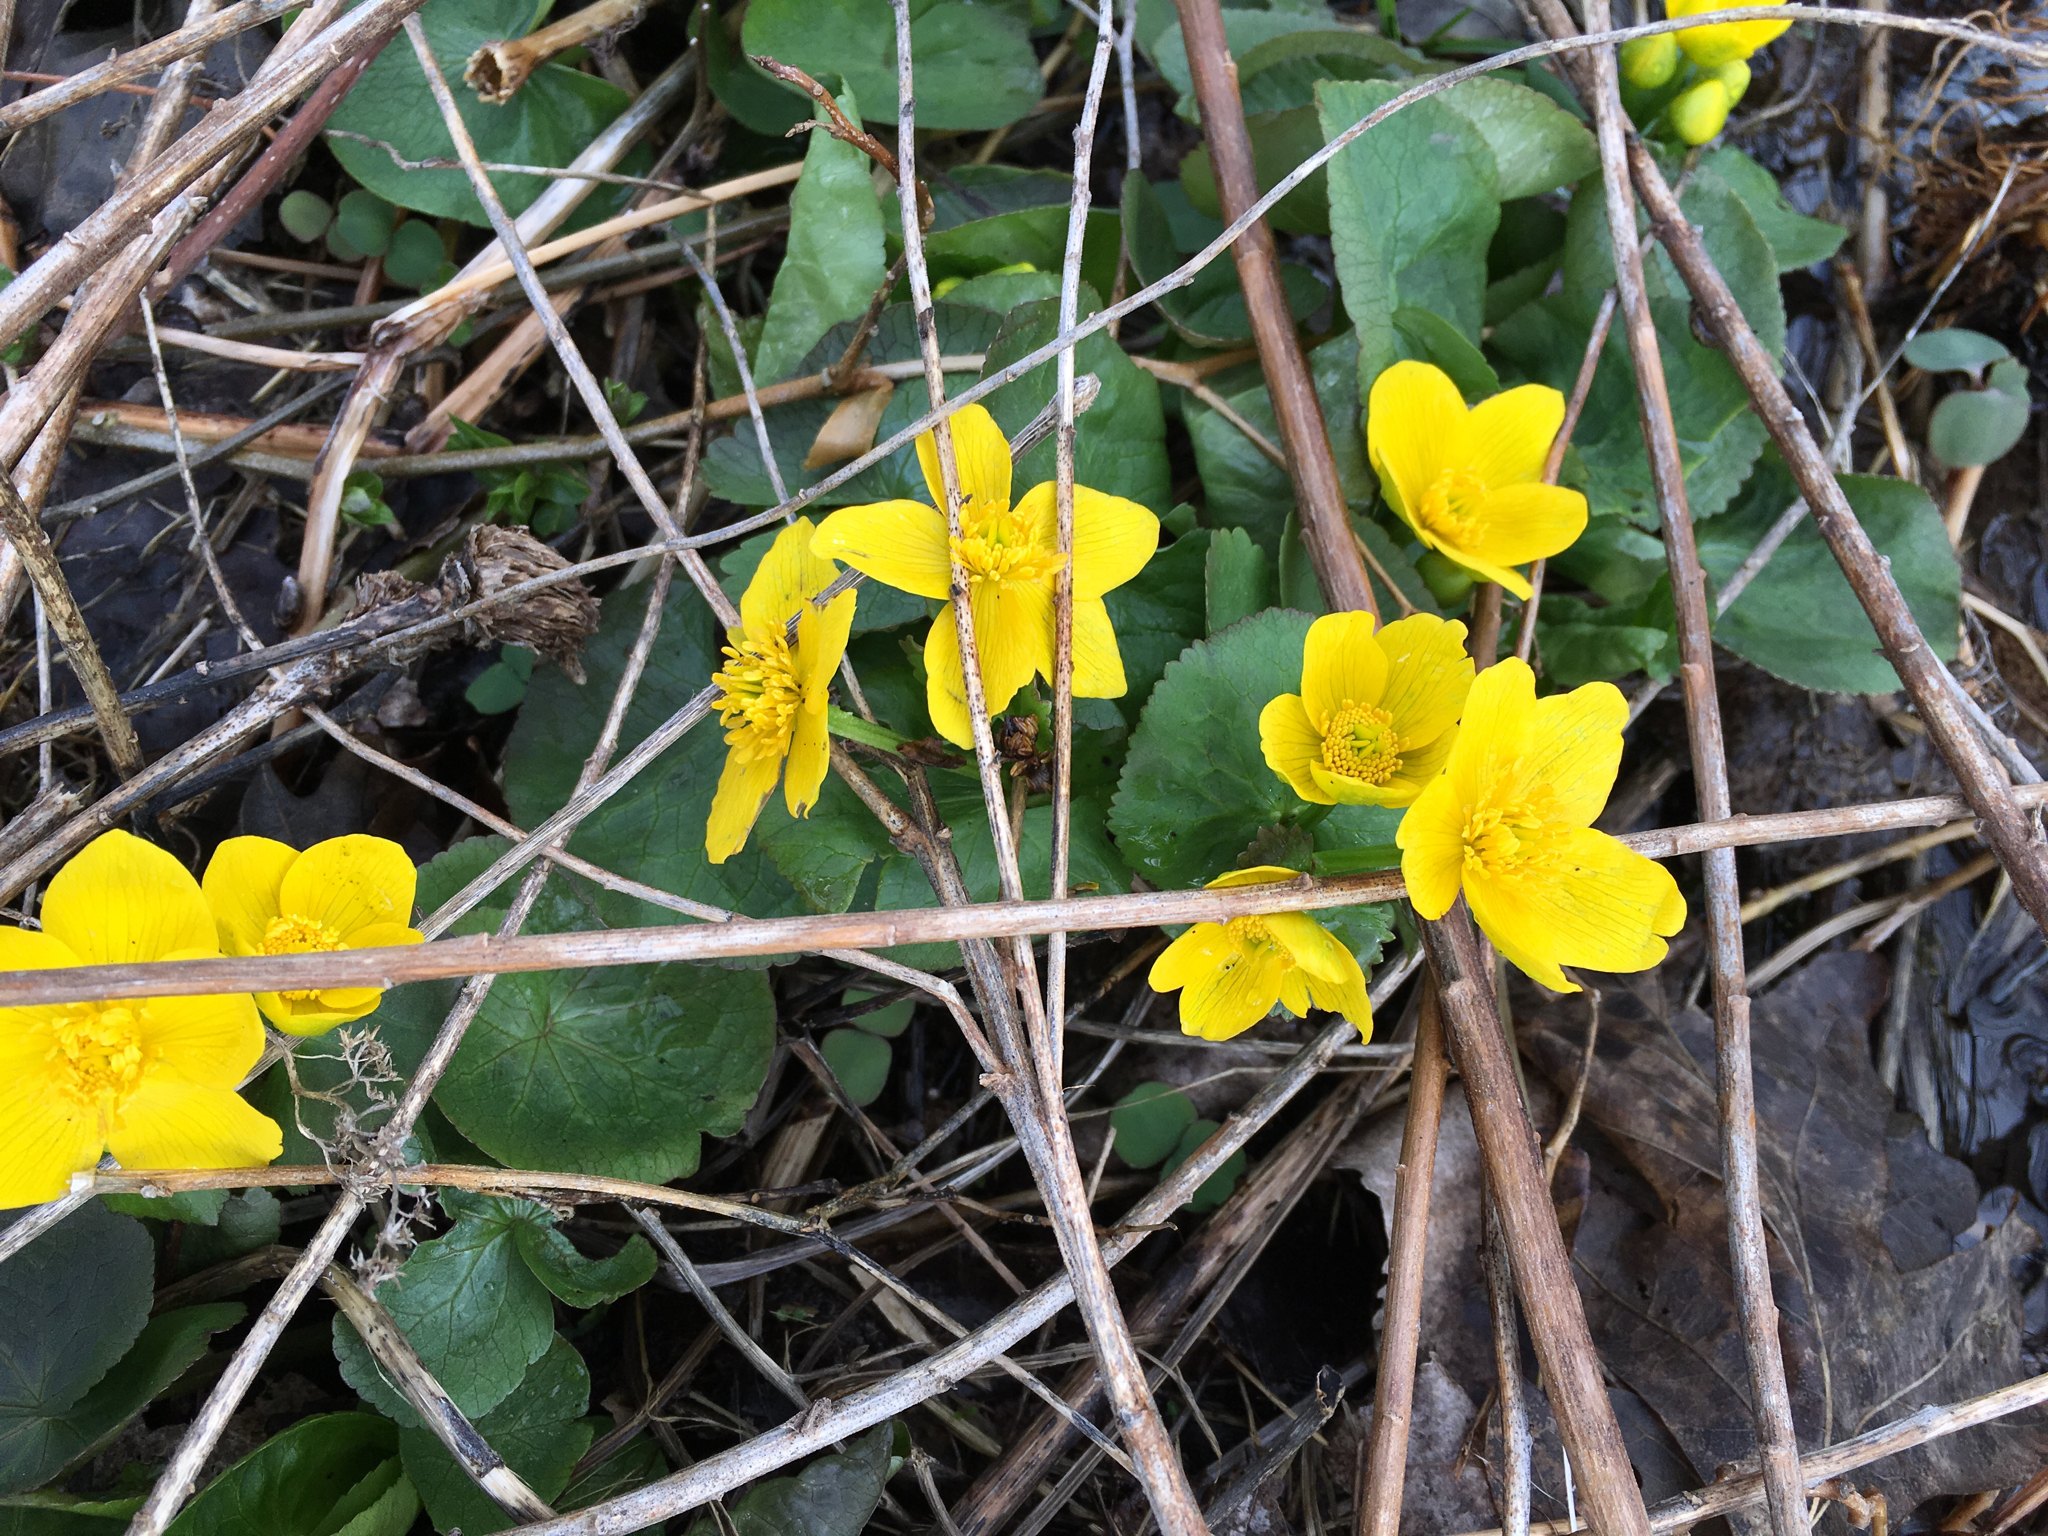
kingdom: Plantae
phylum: Tracheophyta
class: Magnoliopsida
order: Ranunculales
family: Ranunculaceae
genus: Caltha
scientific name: Caltha palustris
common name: Marsh marigold
